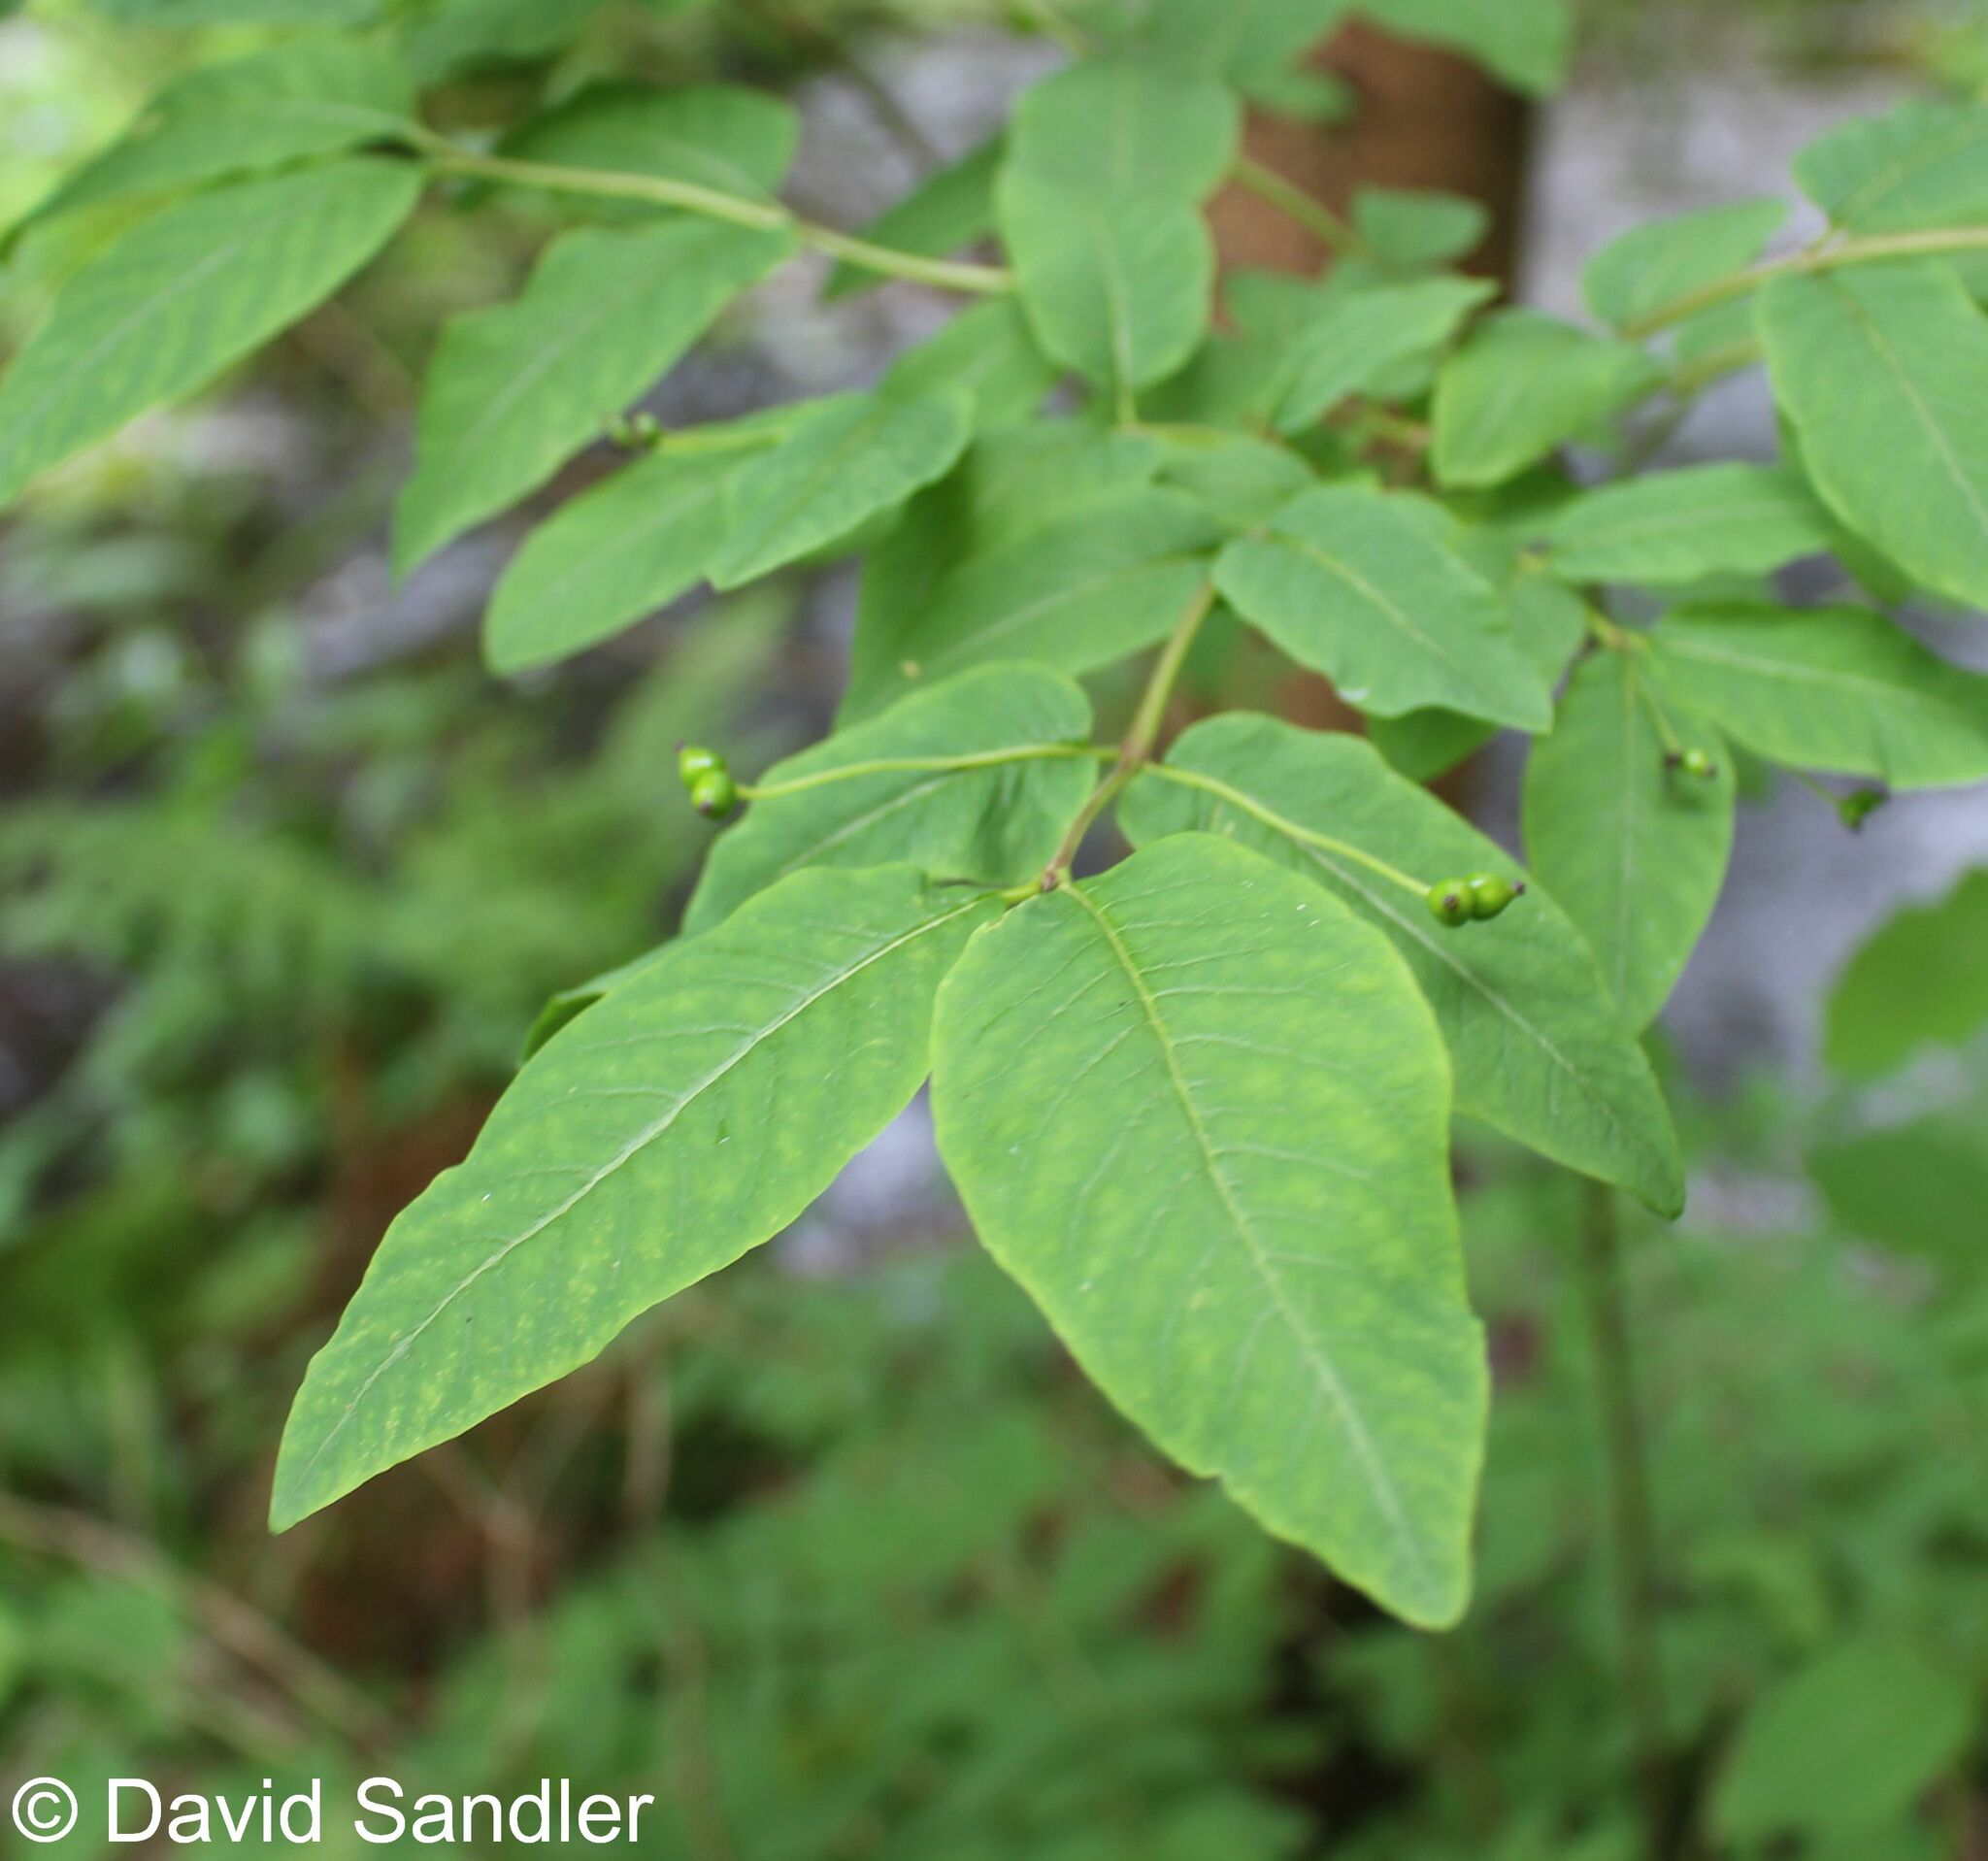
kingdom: Plantae
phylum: Tracheophyta
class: Magnoliopsida
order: Dipsacales
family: Caprifoliaceae
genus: Lonicera
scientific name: Lonicera nigra
